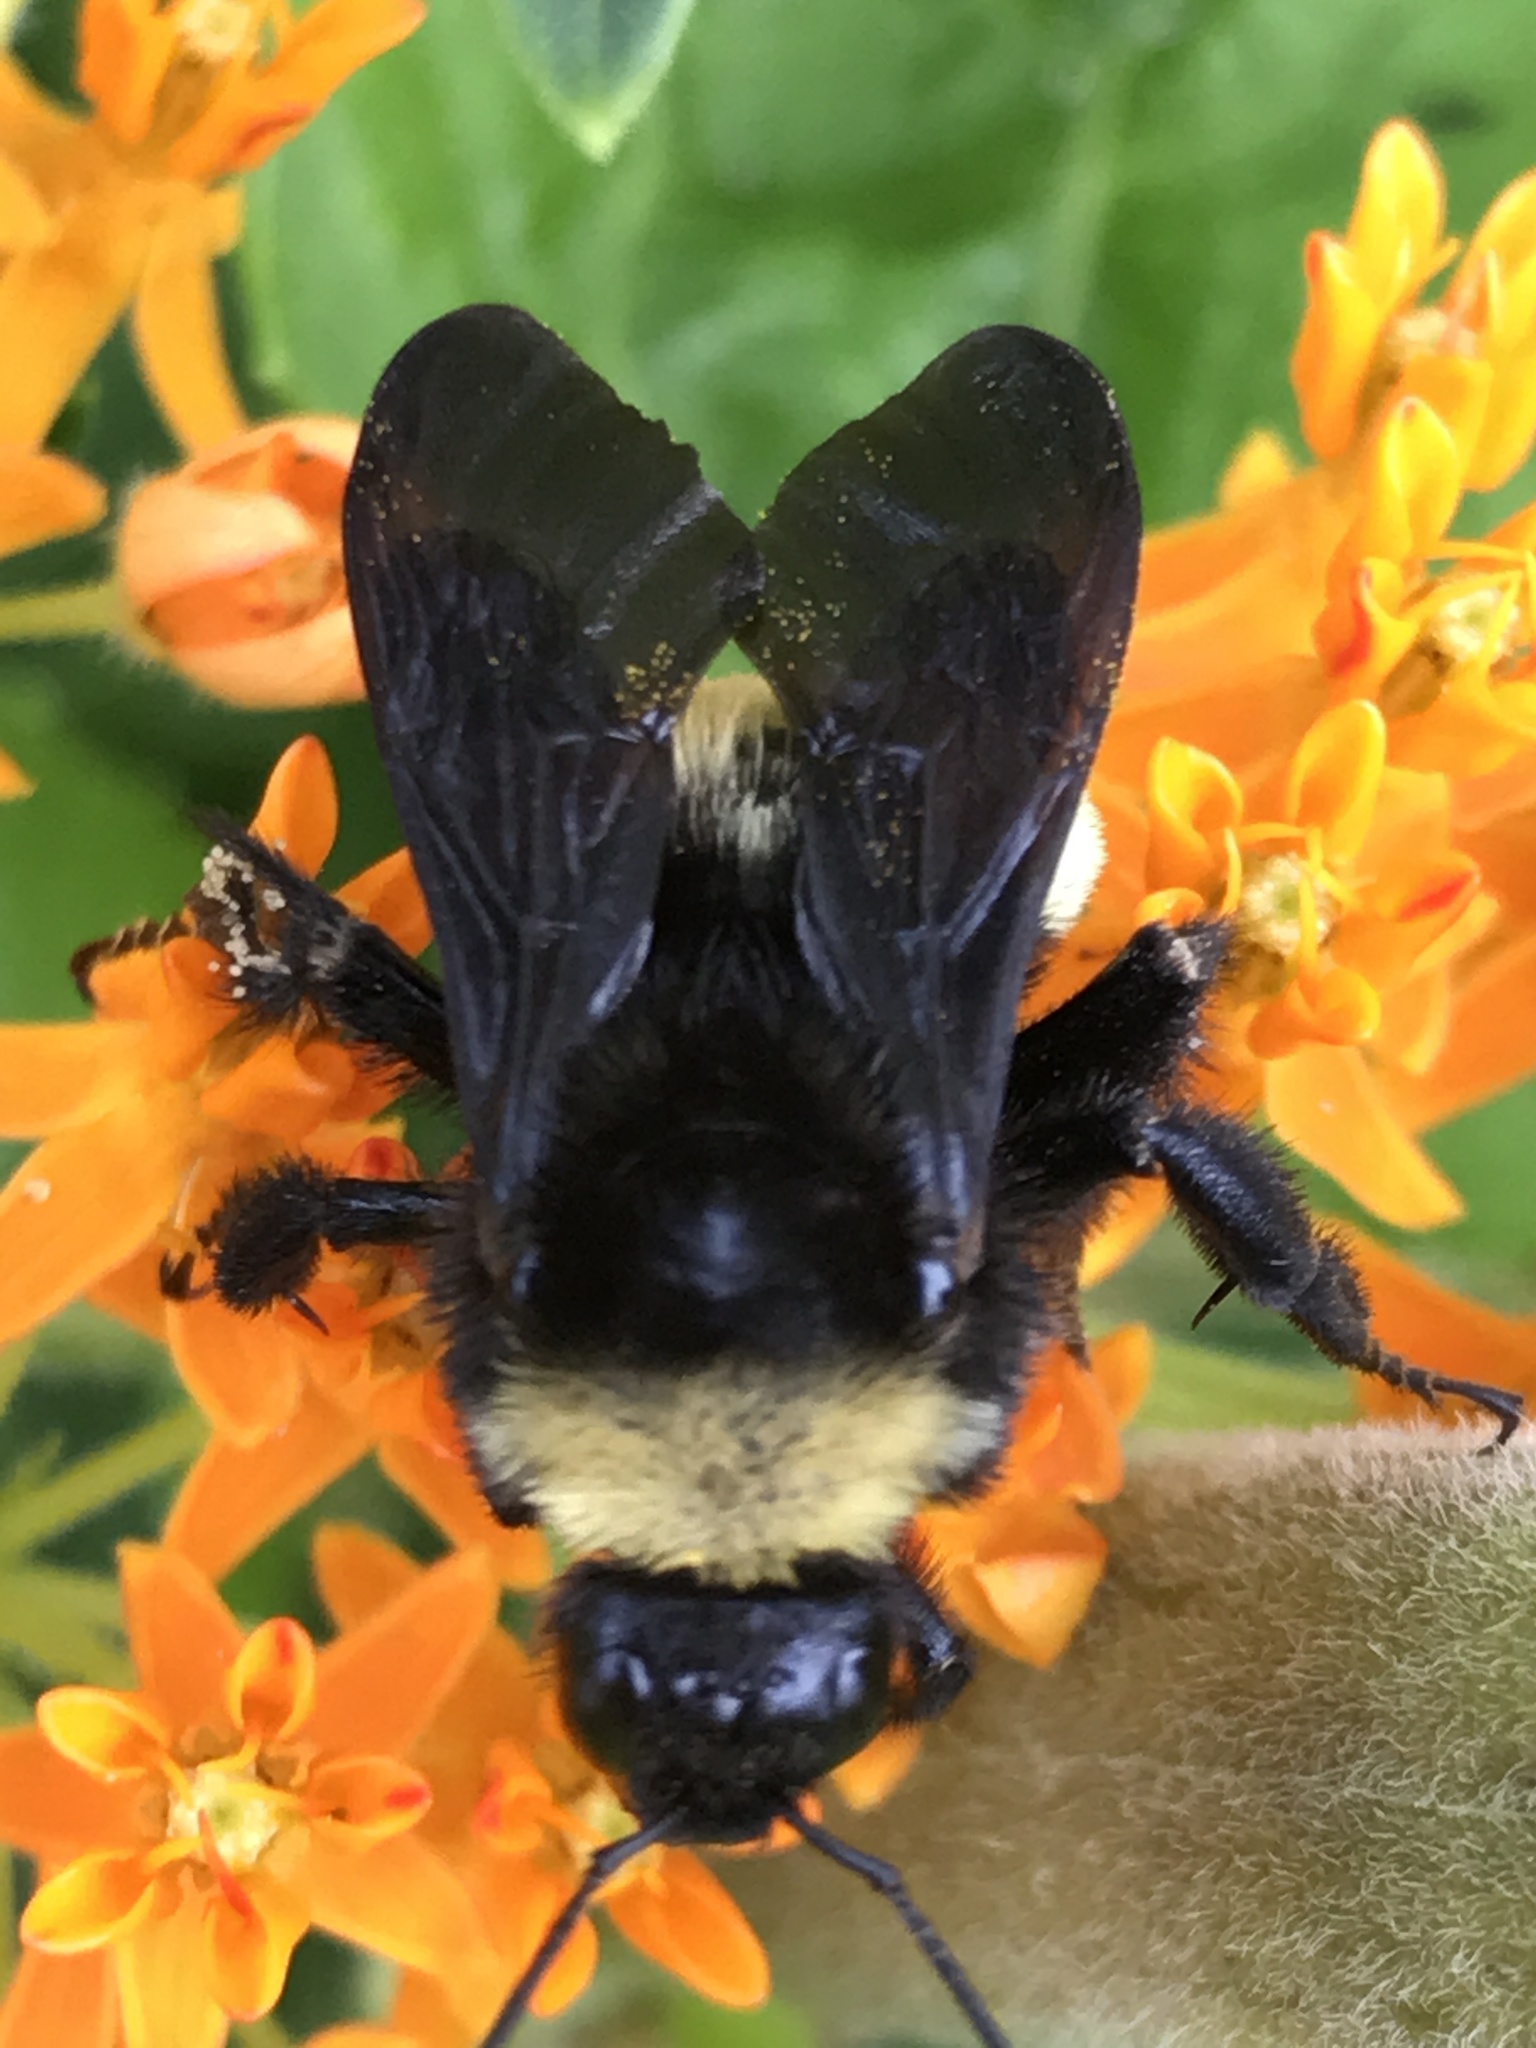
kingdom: Animalia
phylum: Arthropoda
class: Insecta
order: Hymenoptera
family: Apidae
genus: Bombus
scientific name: Bombus pensylvanicus
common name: Bumble bee
